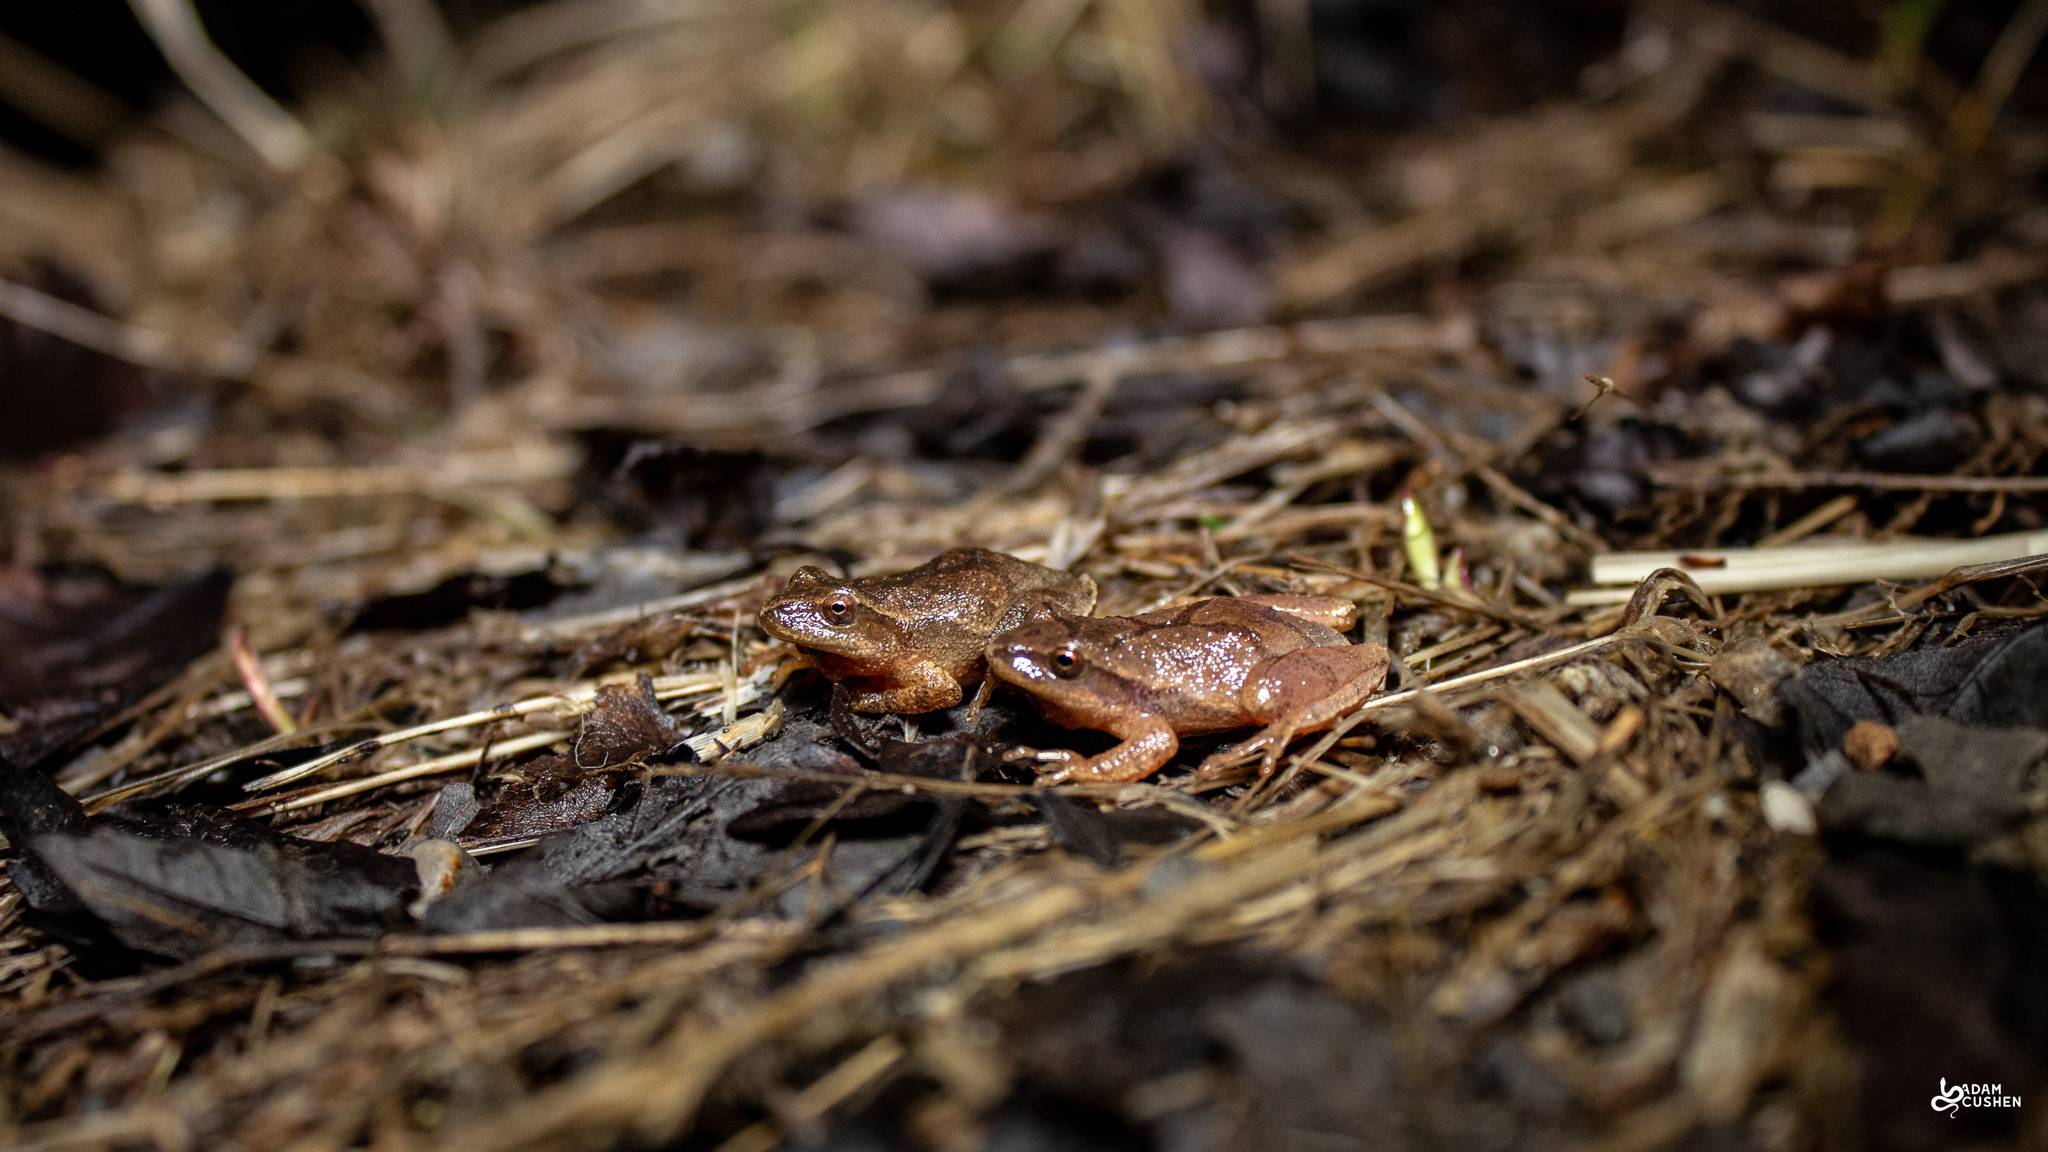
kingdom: Animalia
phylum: Chordata
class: Amphibia
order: Anura
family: Hylidae
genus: Pseudacris
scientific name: Pseudacris crucifer
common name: Spring peeper
